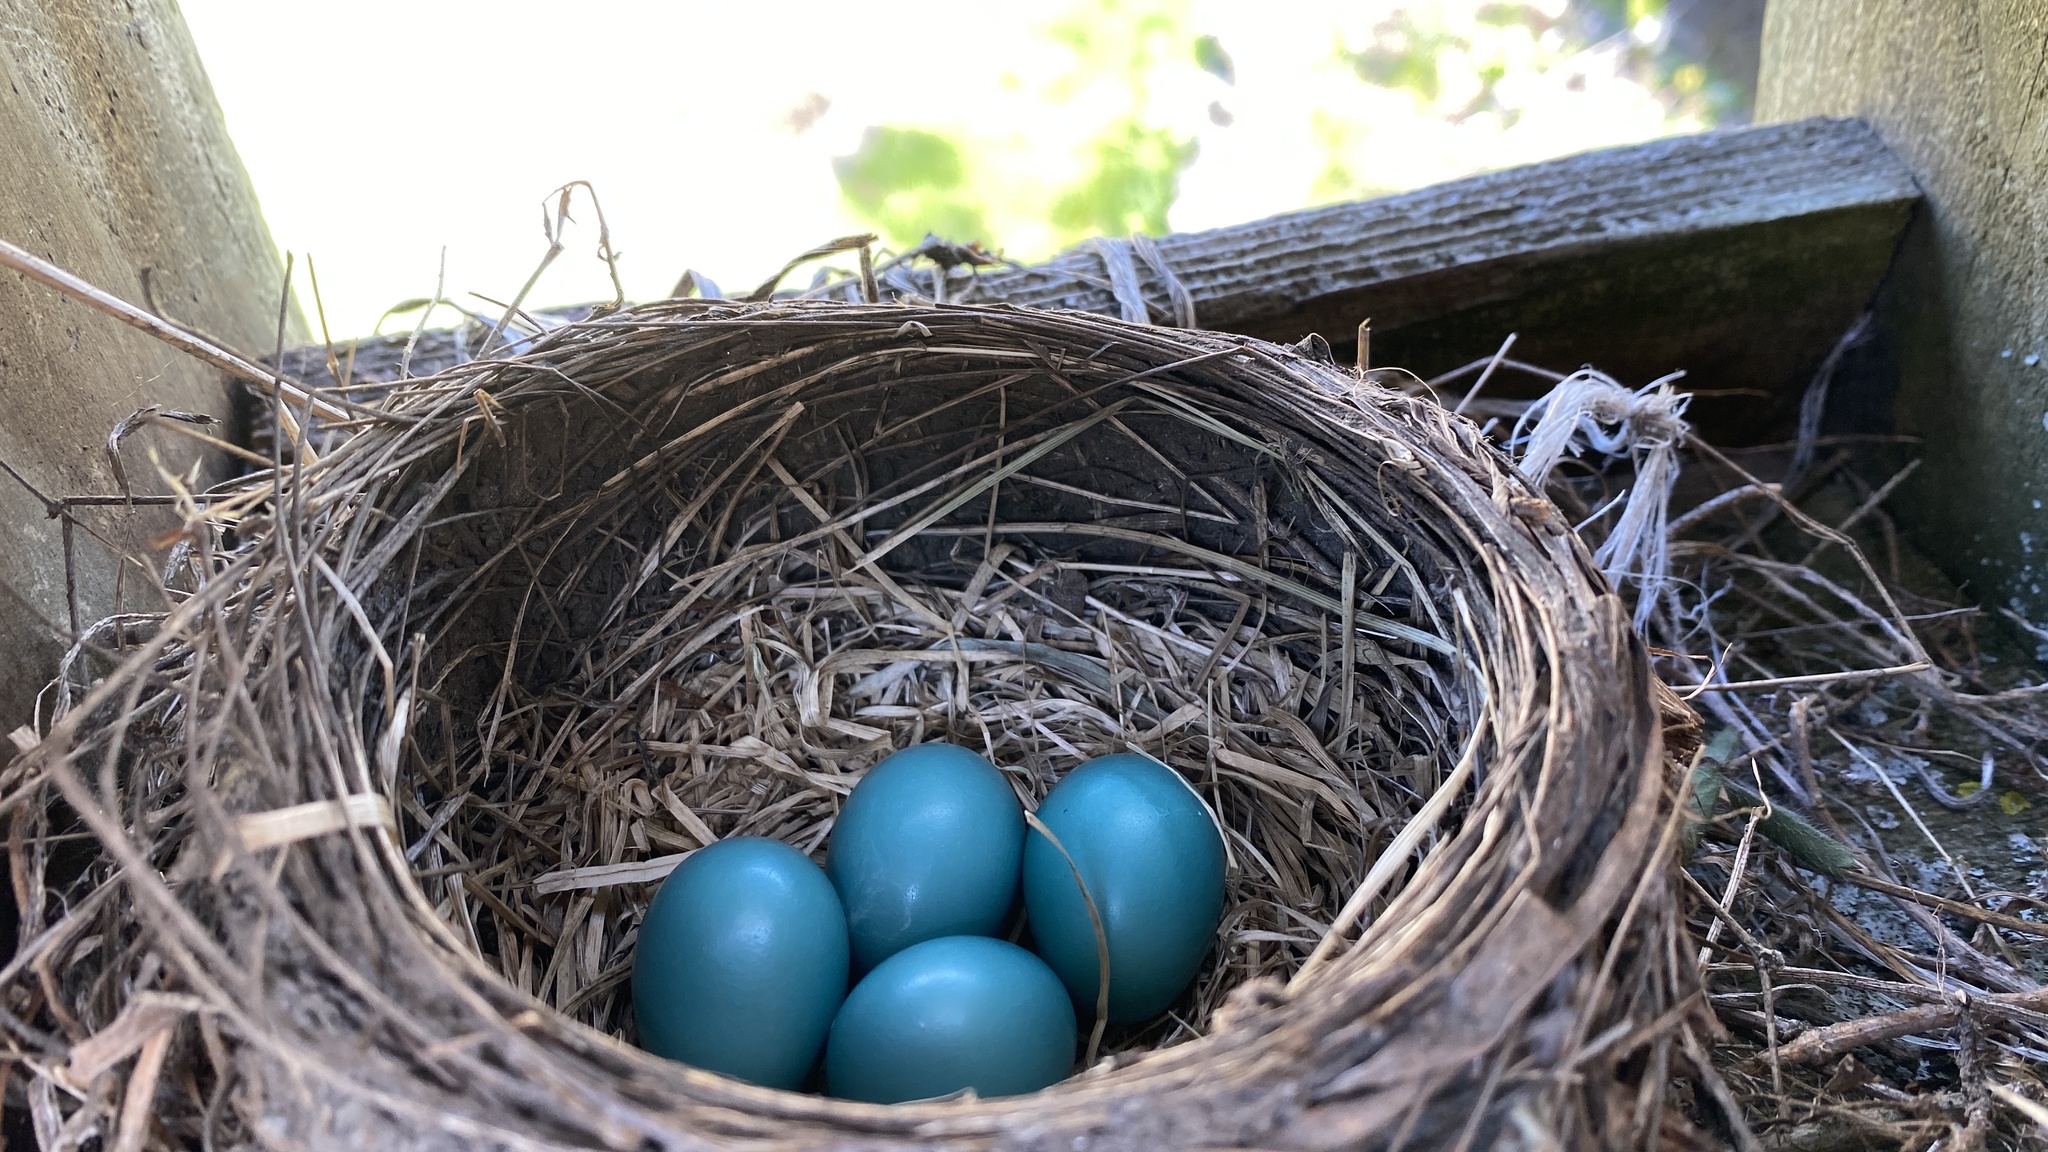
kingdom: Animalia
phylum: Chordata
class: Aves
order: Passeriformes
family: Turdidae
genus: Turdus
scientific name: Turdus migratorius
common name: American robin
